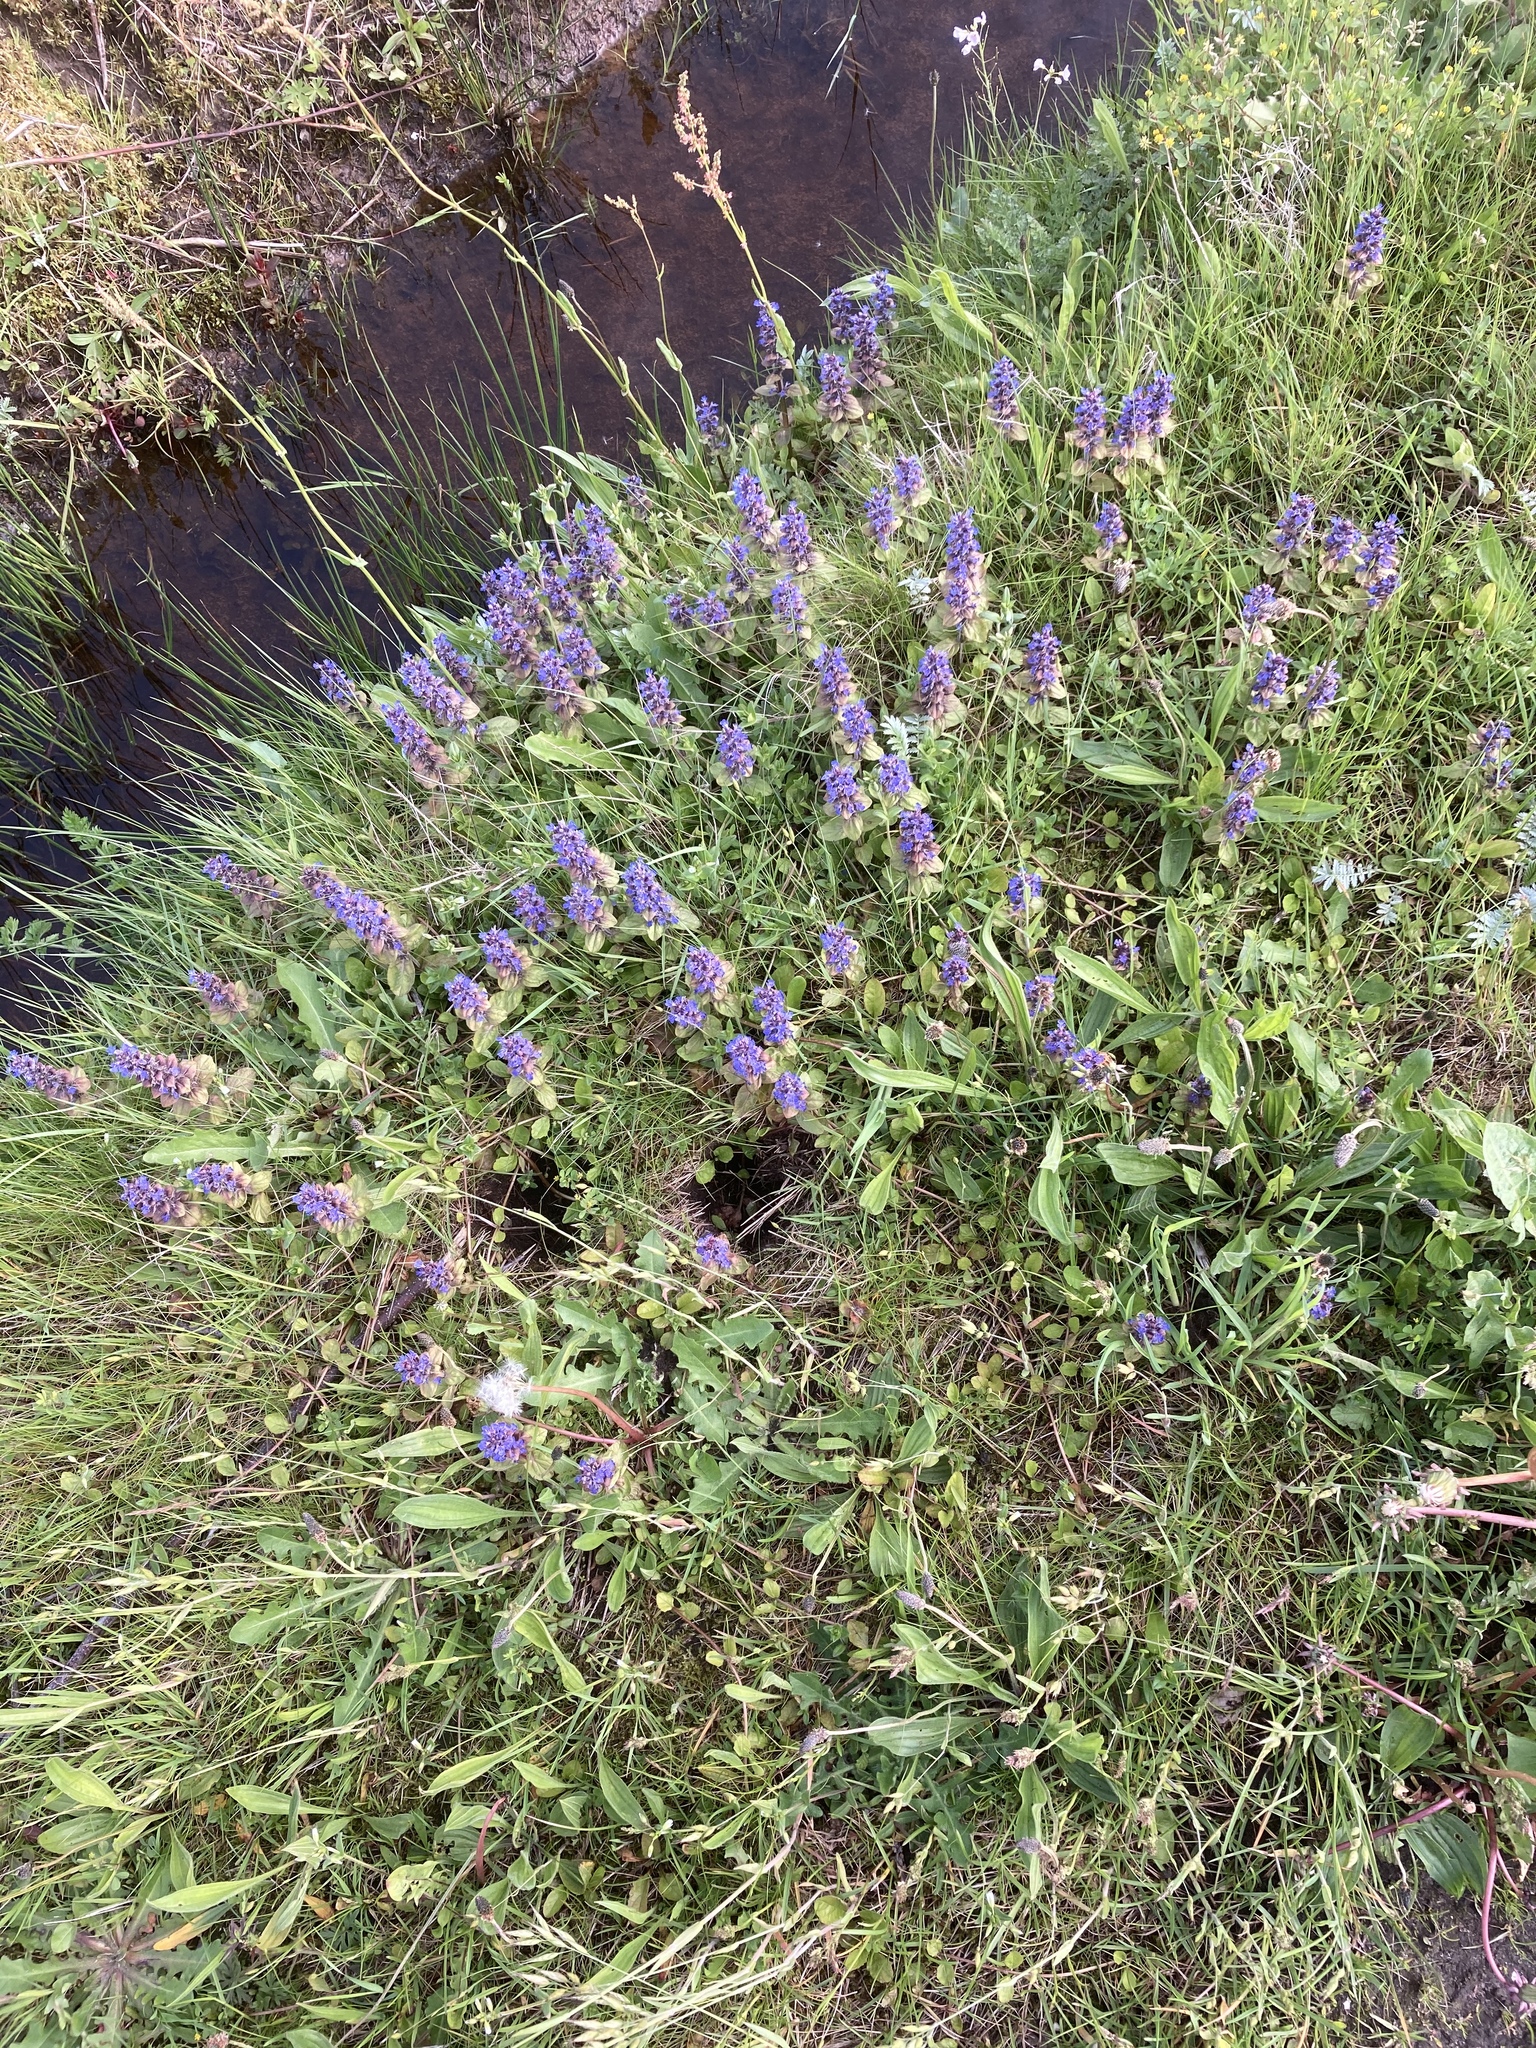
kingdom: Plantae
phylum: Tracheophyta
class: Magnoliopsida
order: Boraginales
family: Boraginaceae
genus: Anchusa
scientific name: Anchusa officinalis
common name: Alkanet
